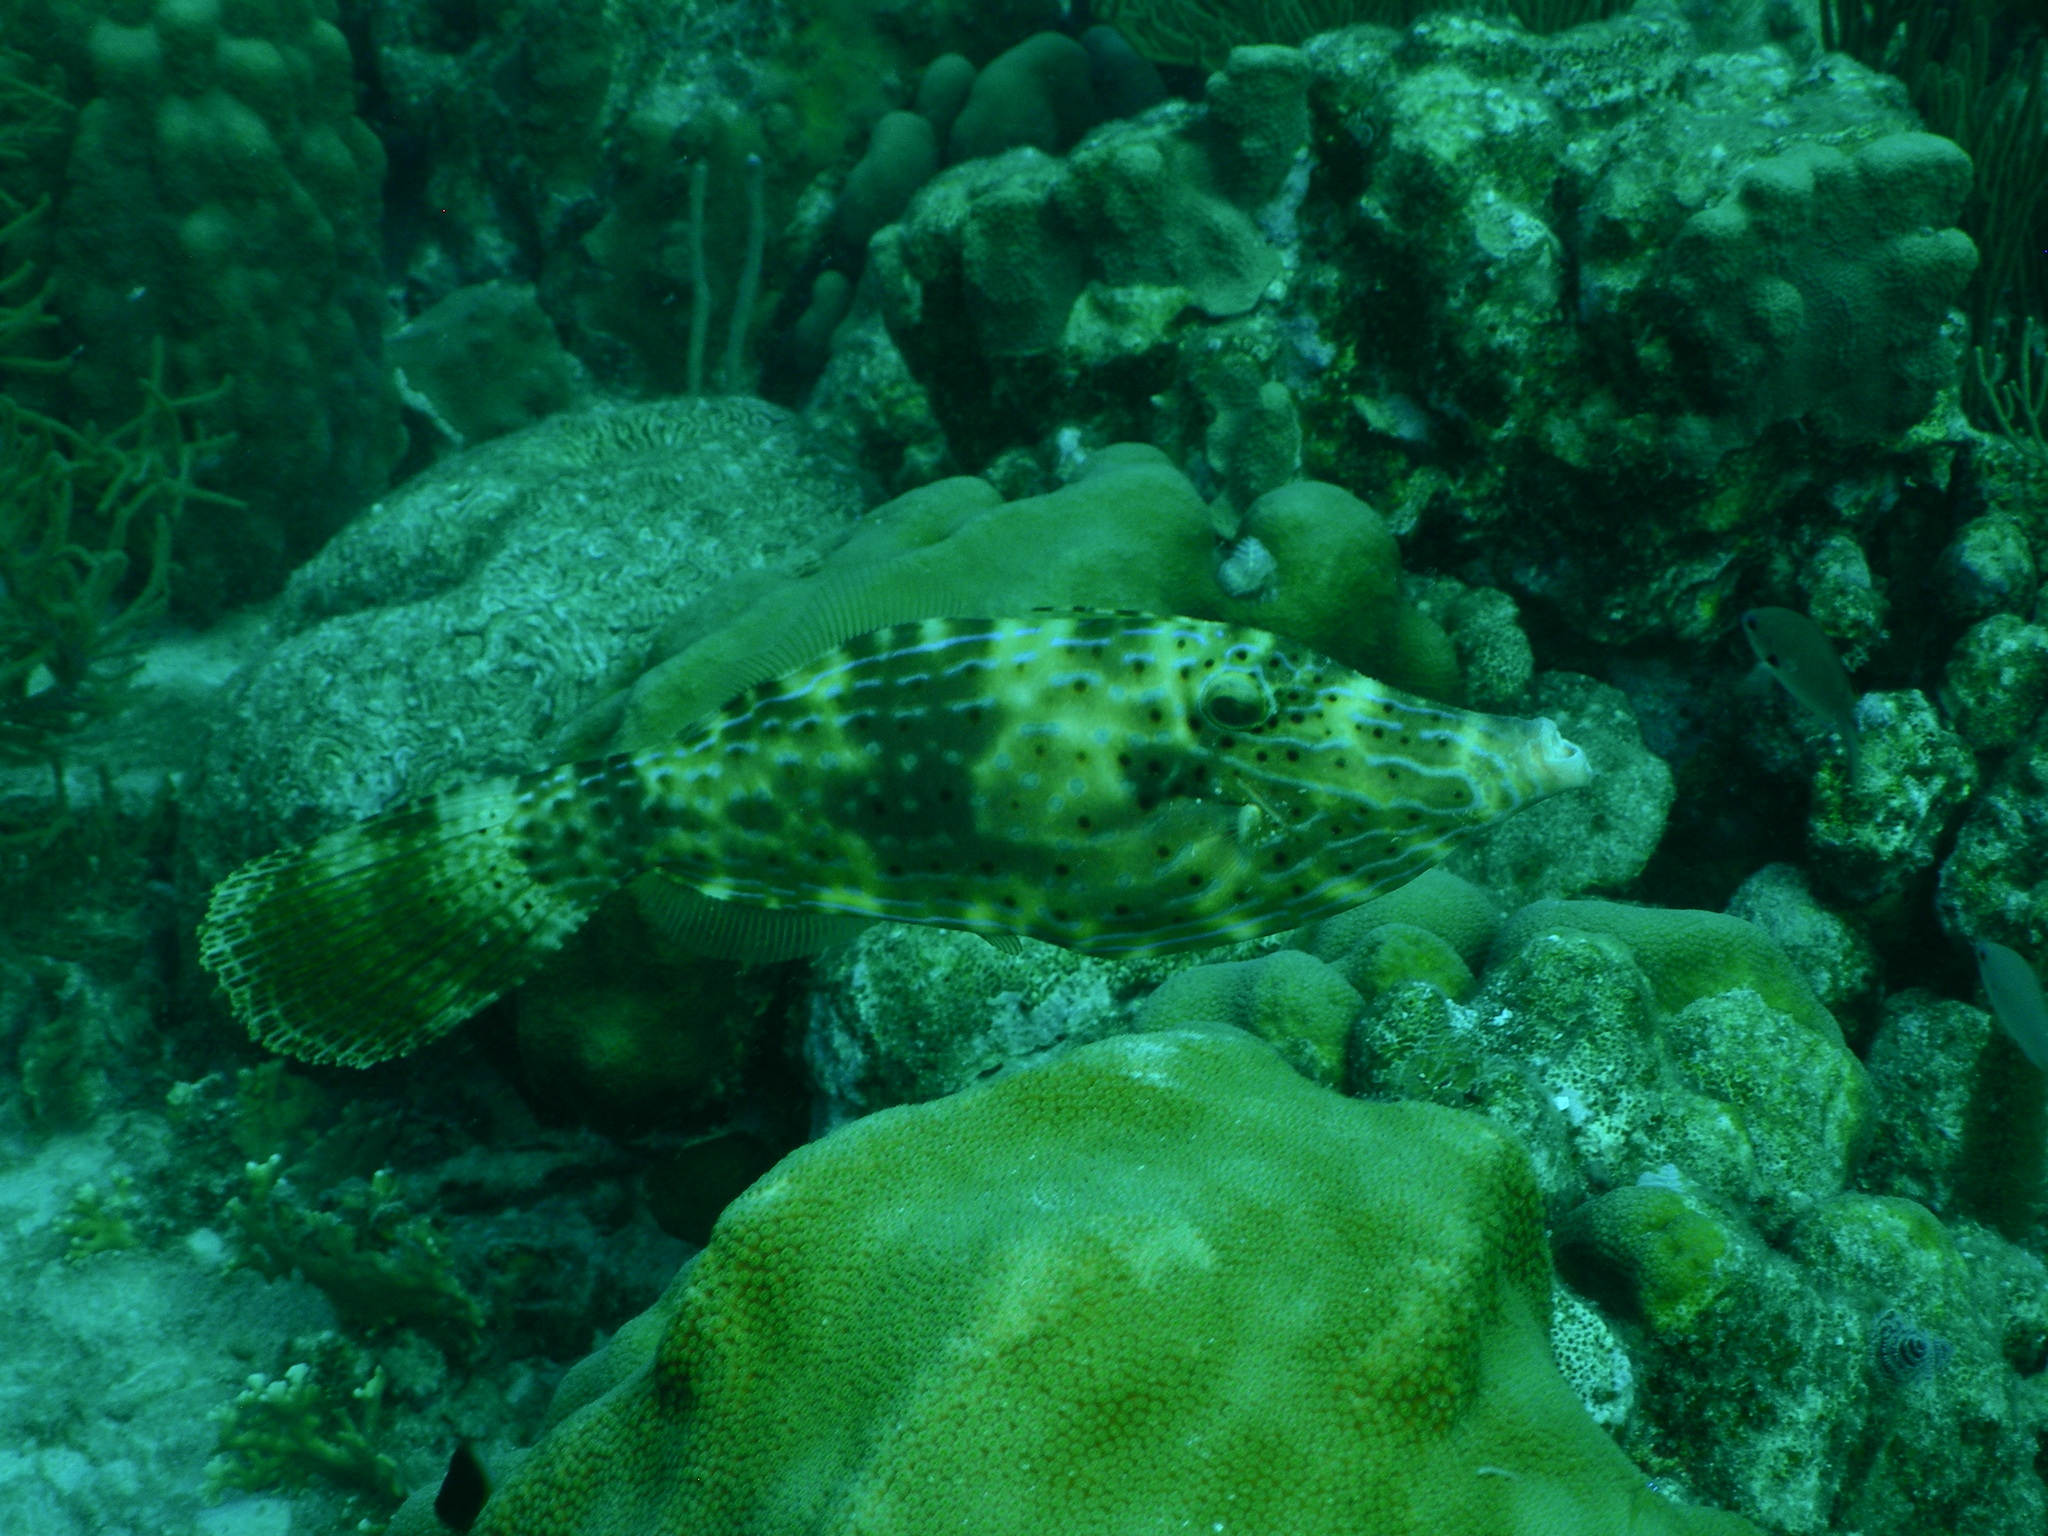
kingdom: Animalia
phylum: Chordata
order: Tetraodontiformes
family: Monacanthidae
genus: Aluterus
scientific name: Aluterus scriptus
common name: Scribbled leatherjacket filefish
